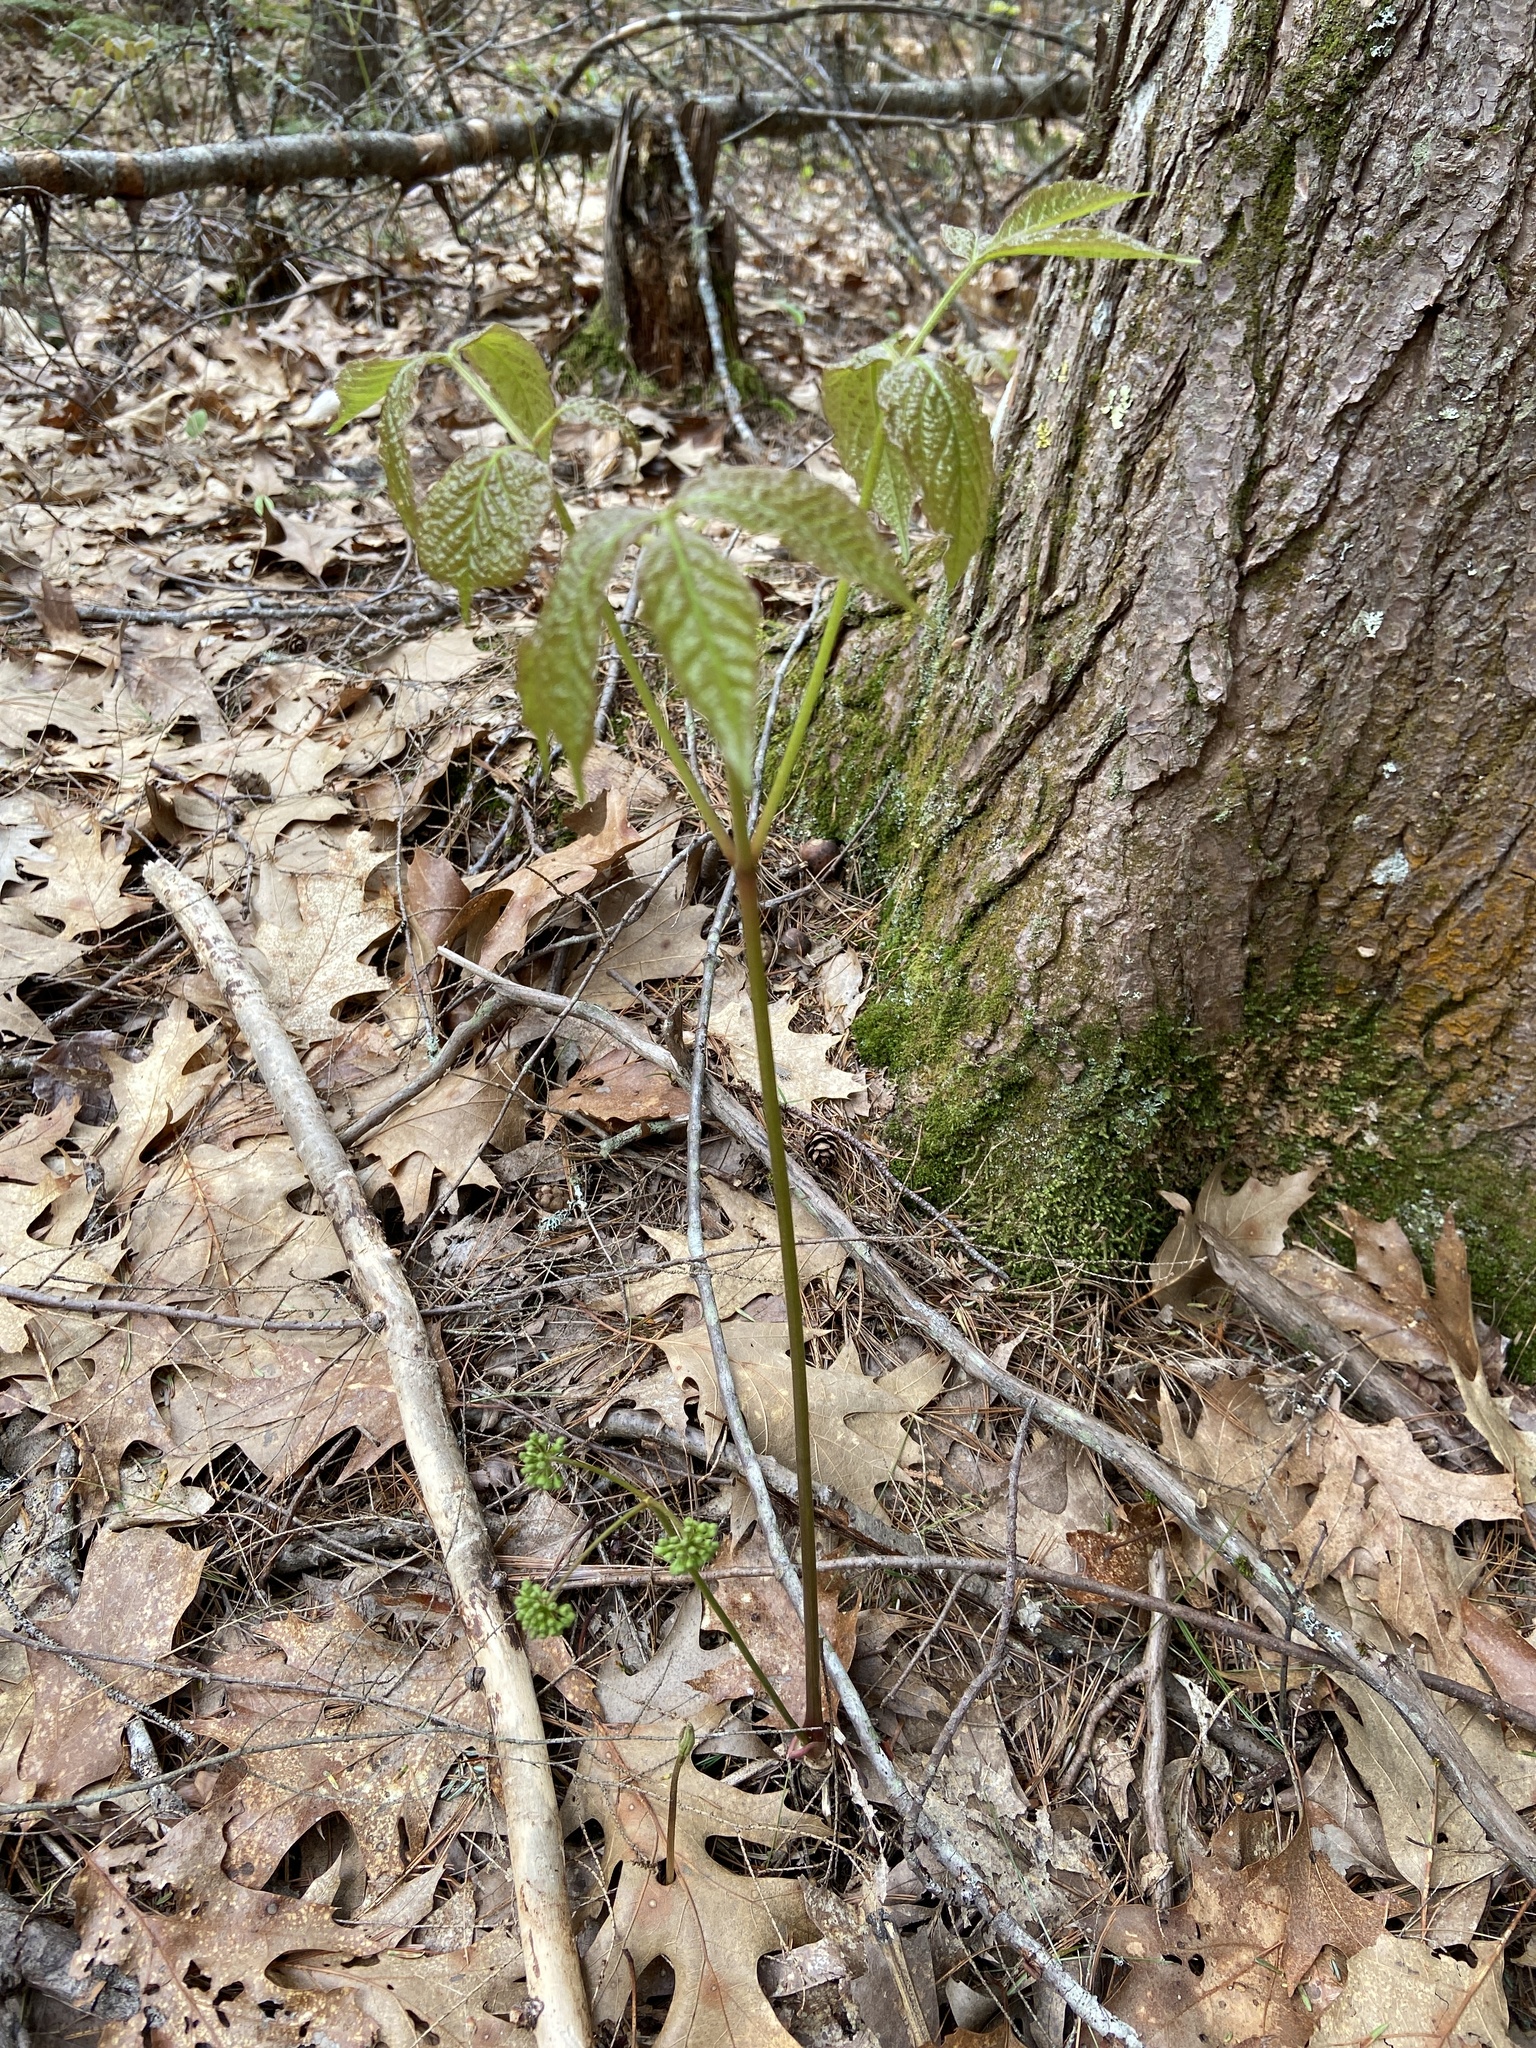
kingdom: Plantae
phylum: Tracheophyta
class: Magnoliopsida
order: Apiales
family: Araliaceae
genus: Aralia
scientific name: Aralia nudicaulis
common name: Wild sarsaparilla
